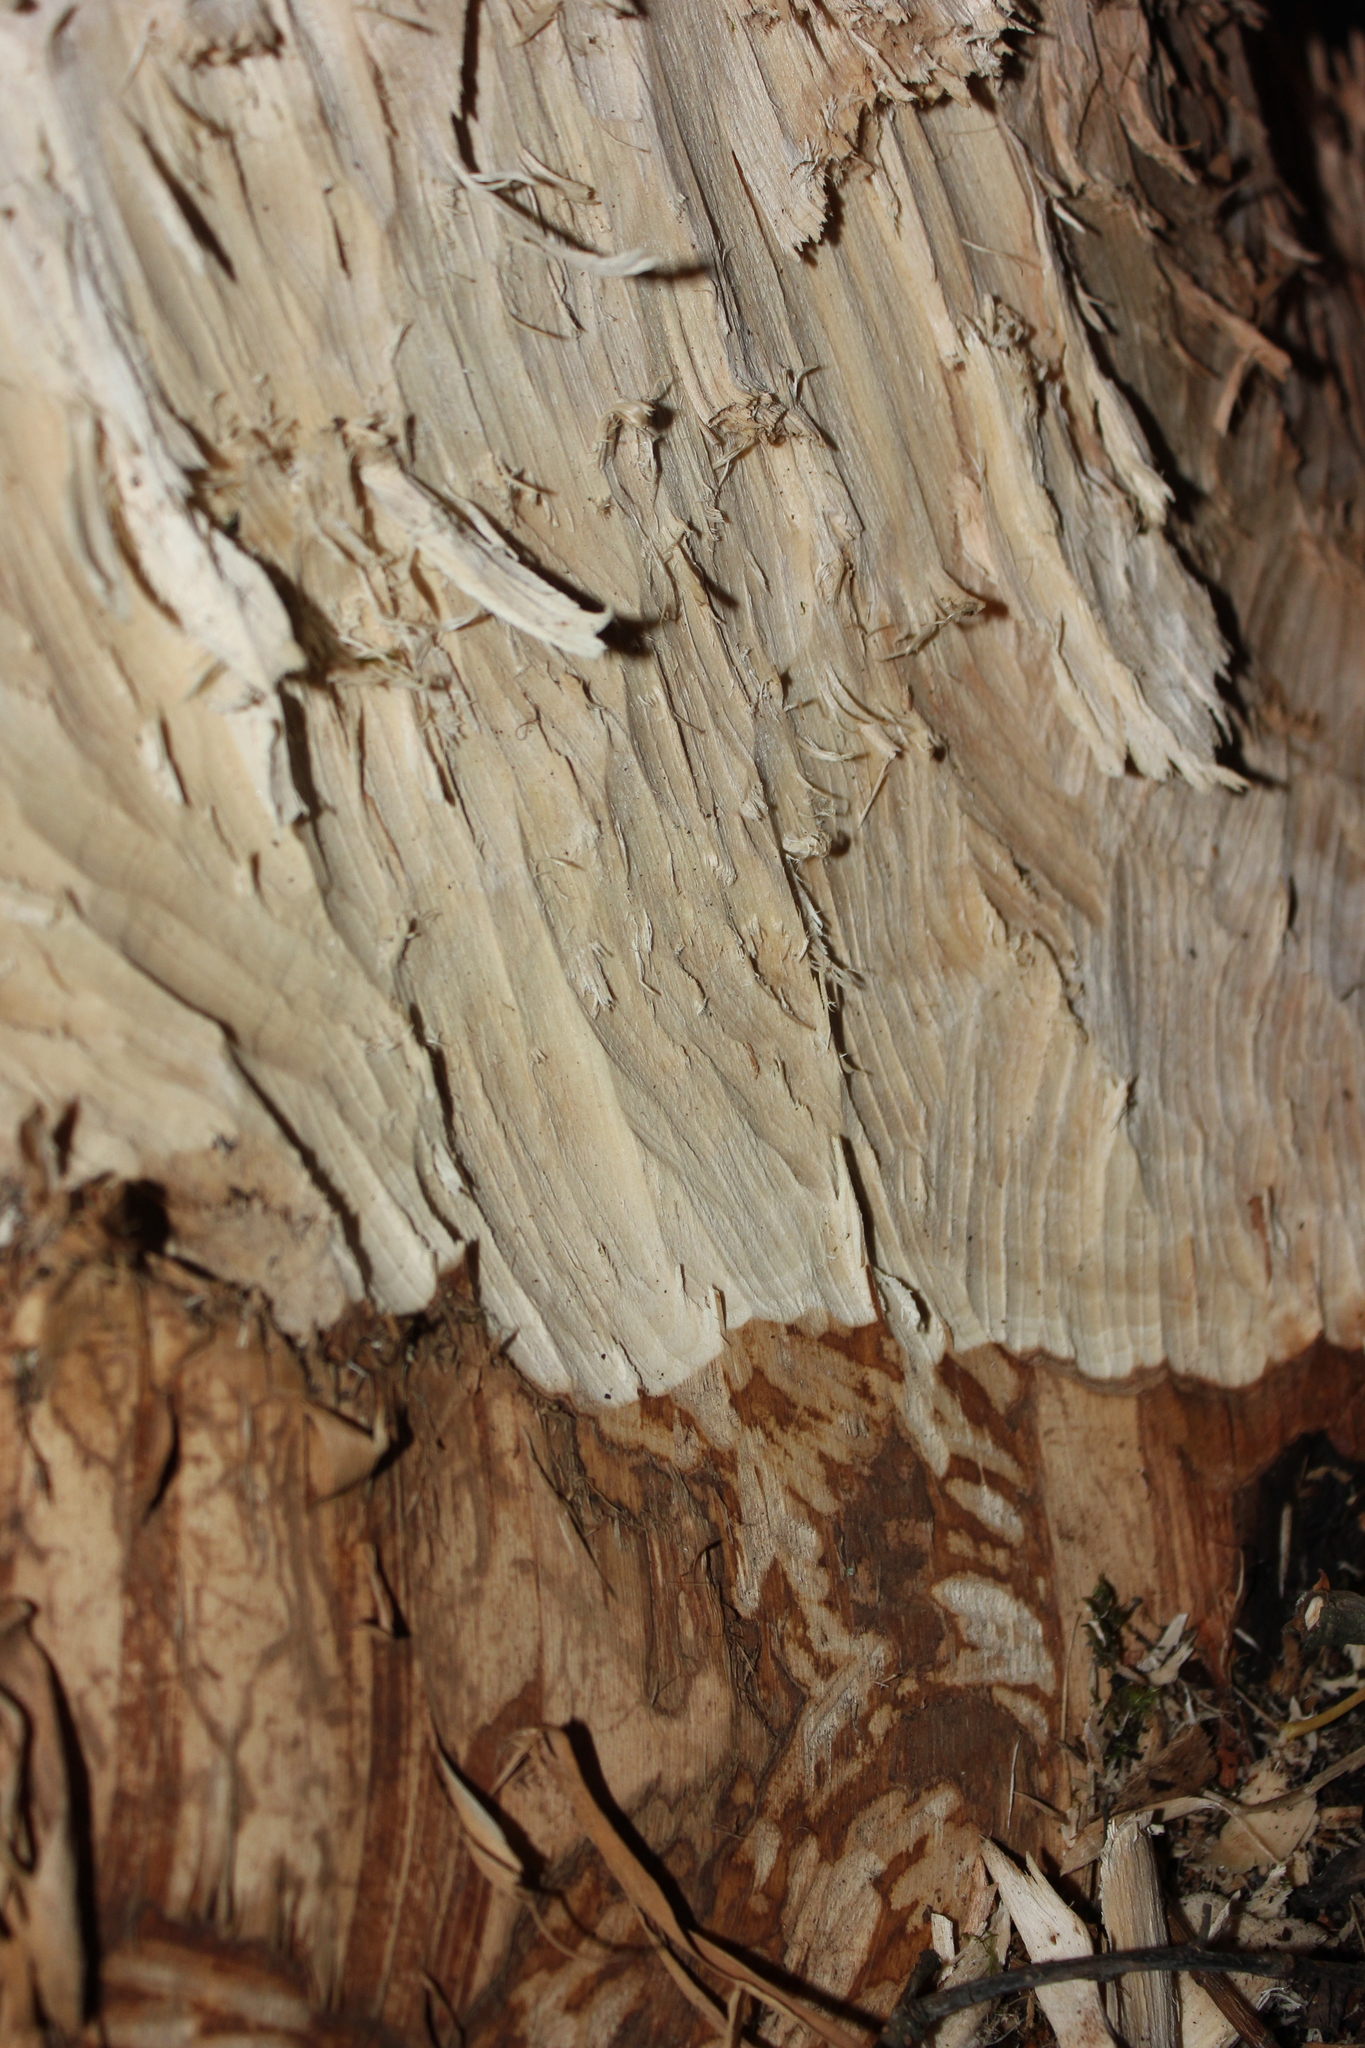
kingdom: Animalia
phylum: Chordata
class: Mammalia
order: Rodentia
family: Castoridae
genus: Castor
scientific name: Castor fiber
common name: Eurasian beaver
